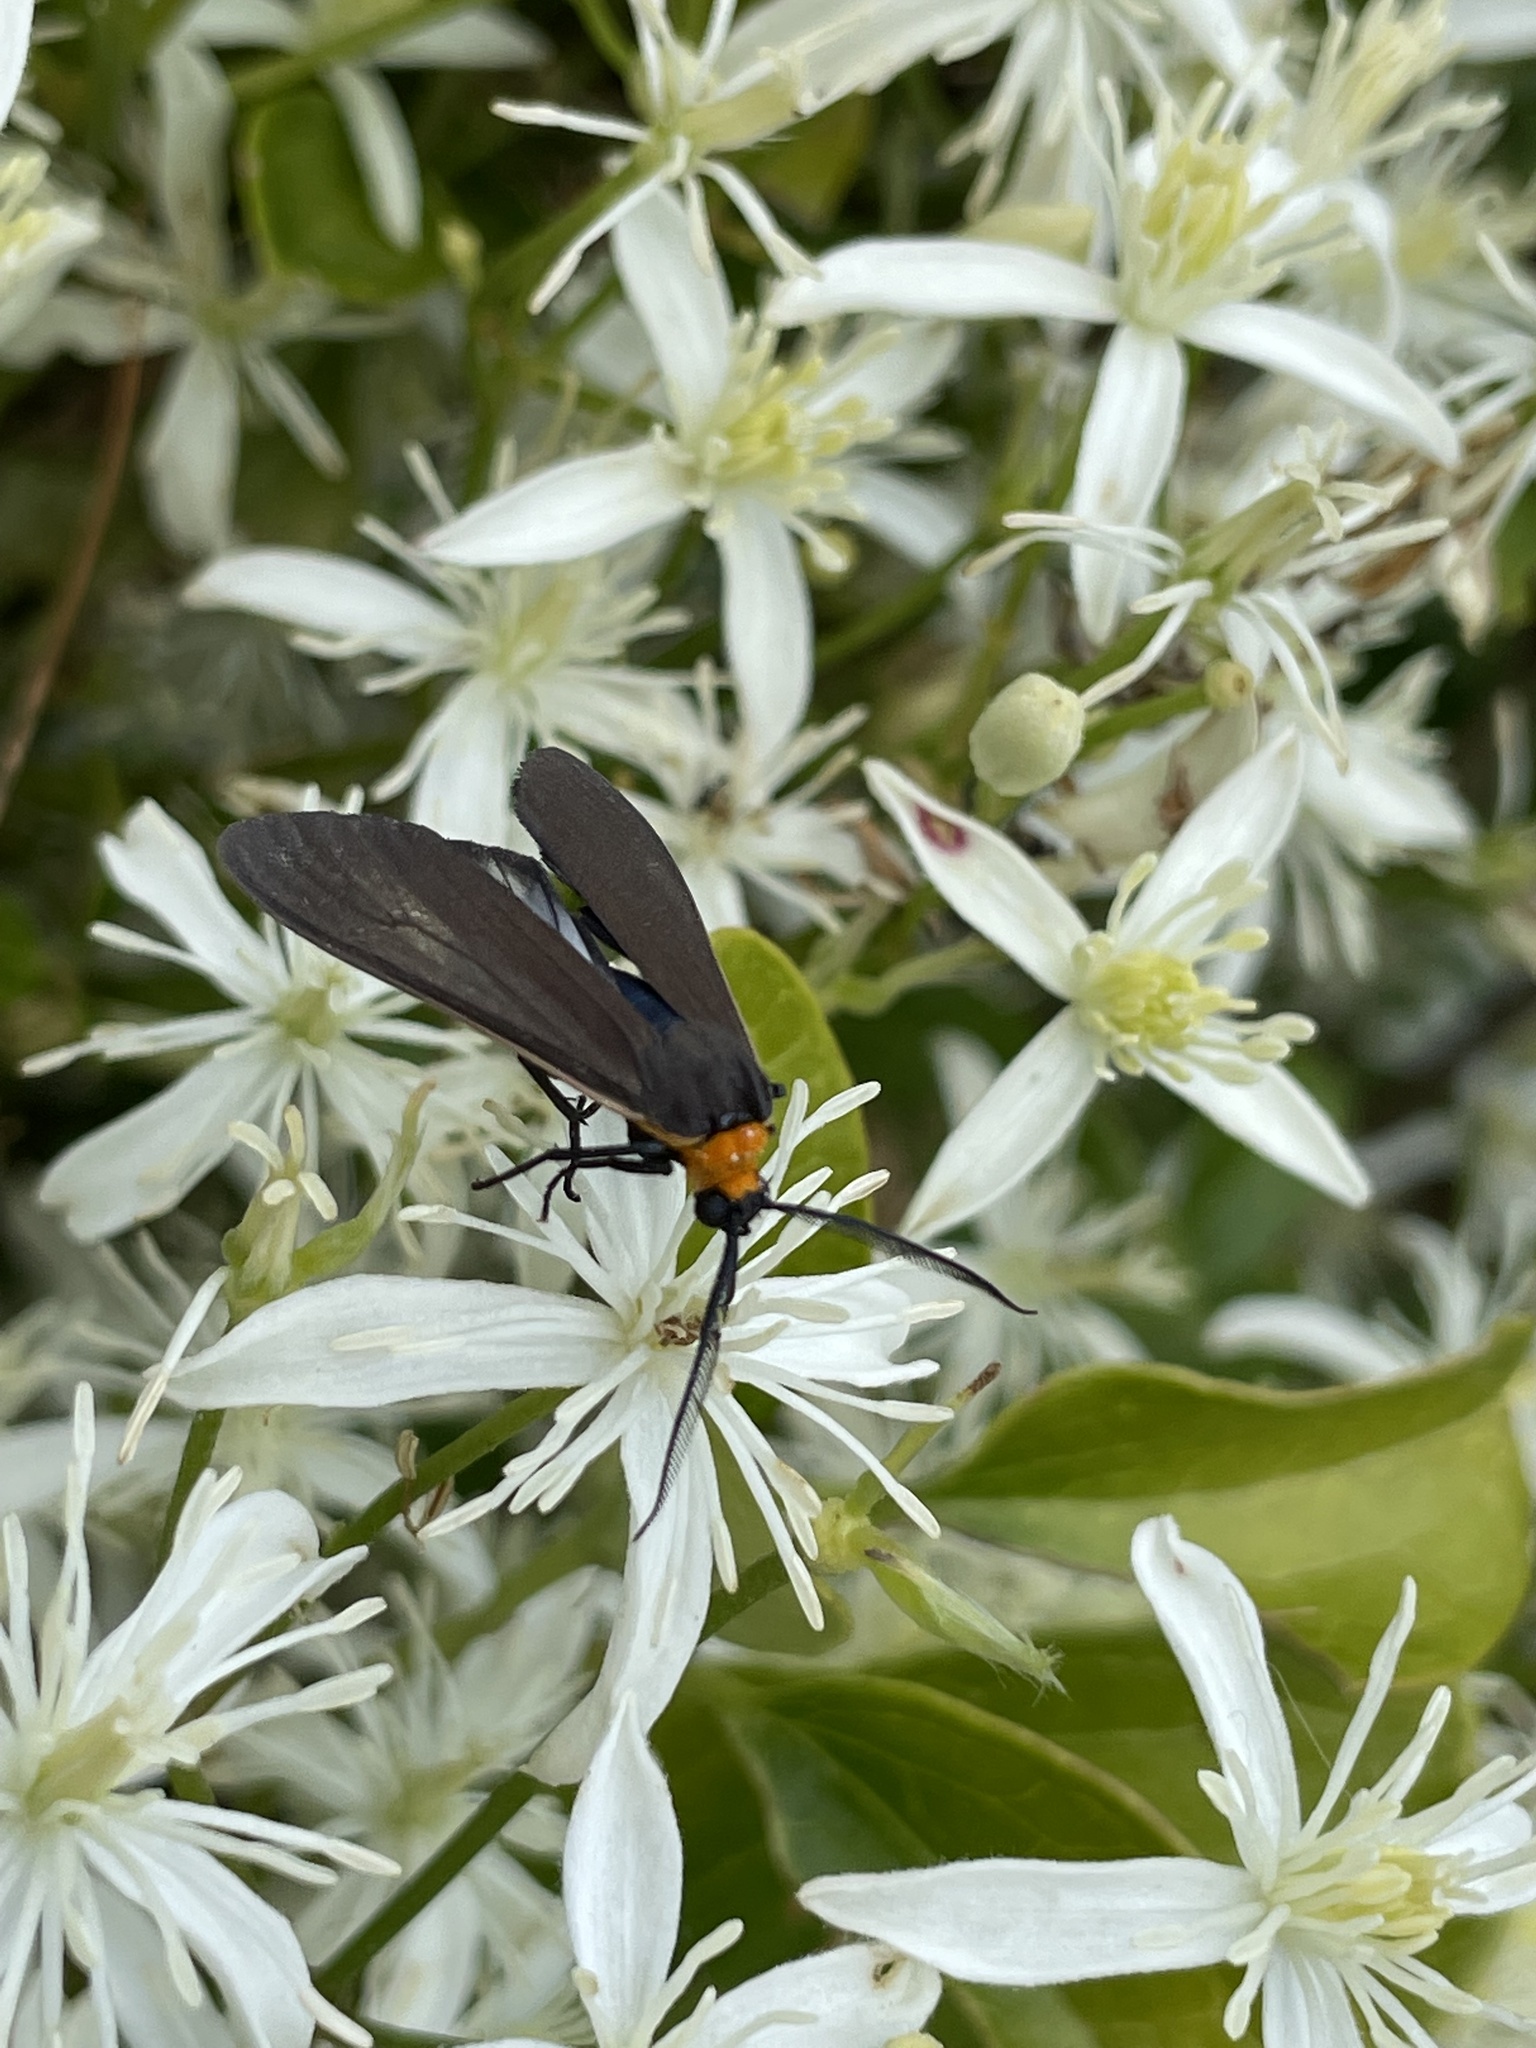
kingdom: Animalia
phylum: Arthropoda
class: Insecta
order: Lepidoptera
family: Erebidae
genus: Cisseps
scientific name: Cisseps fulvicollis
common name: Yellow-collared scape moth
